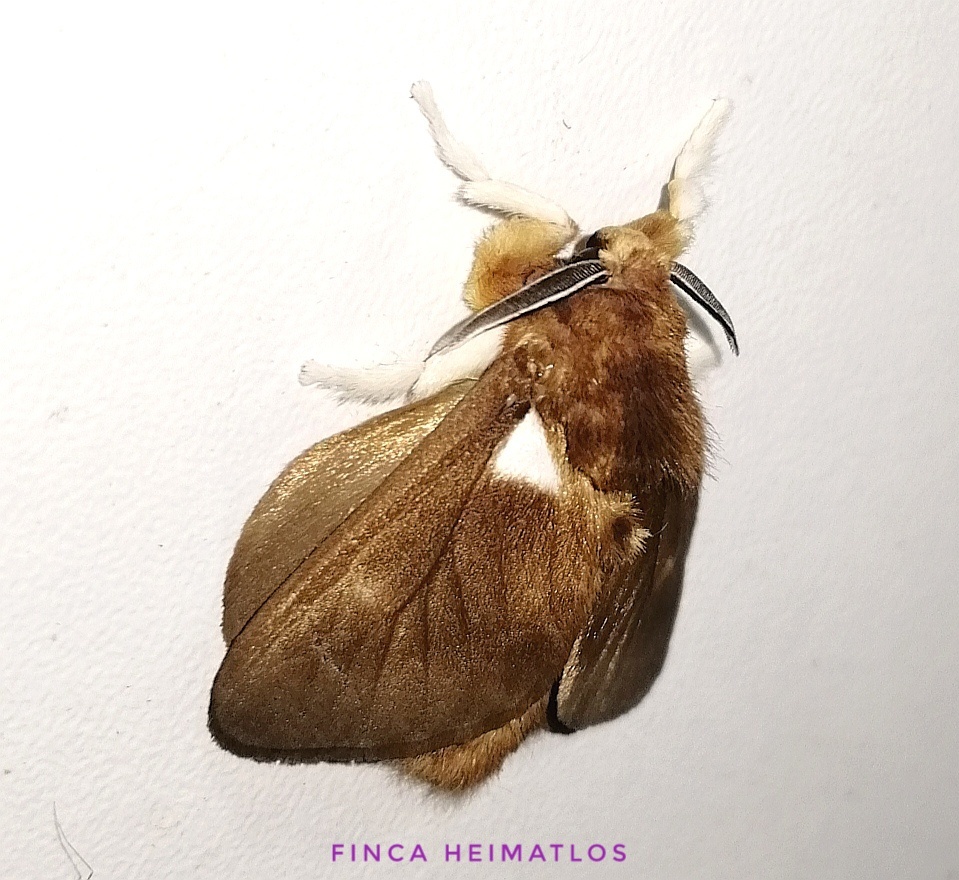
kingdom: Animalia
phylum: Arthropoda
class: Insecta
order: Lepidoptera
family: Megalopygidae
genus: Megalopyge
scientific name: Megalopyge
